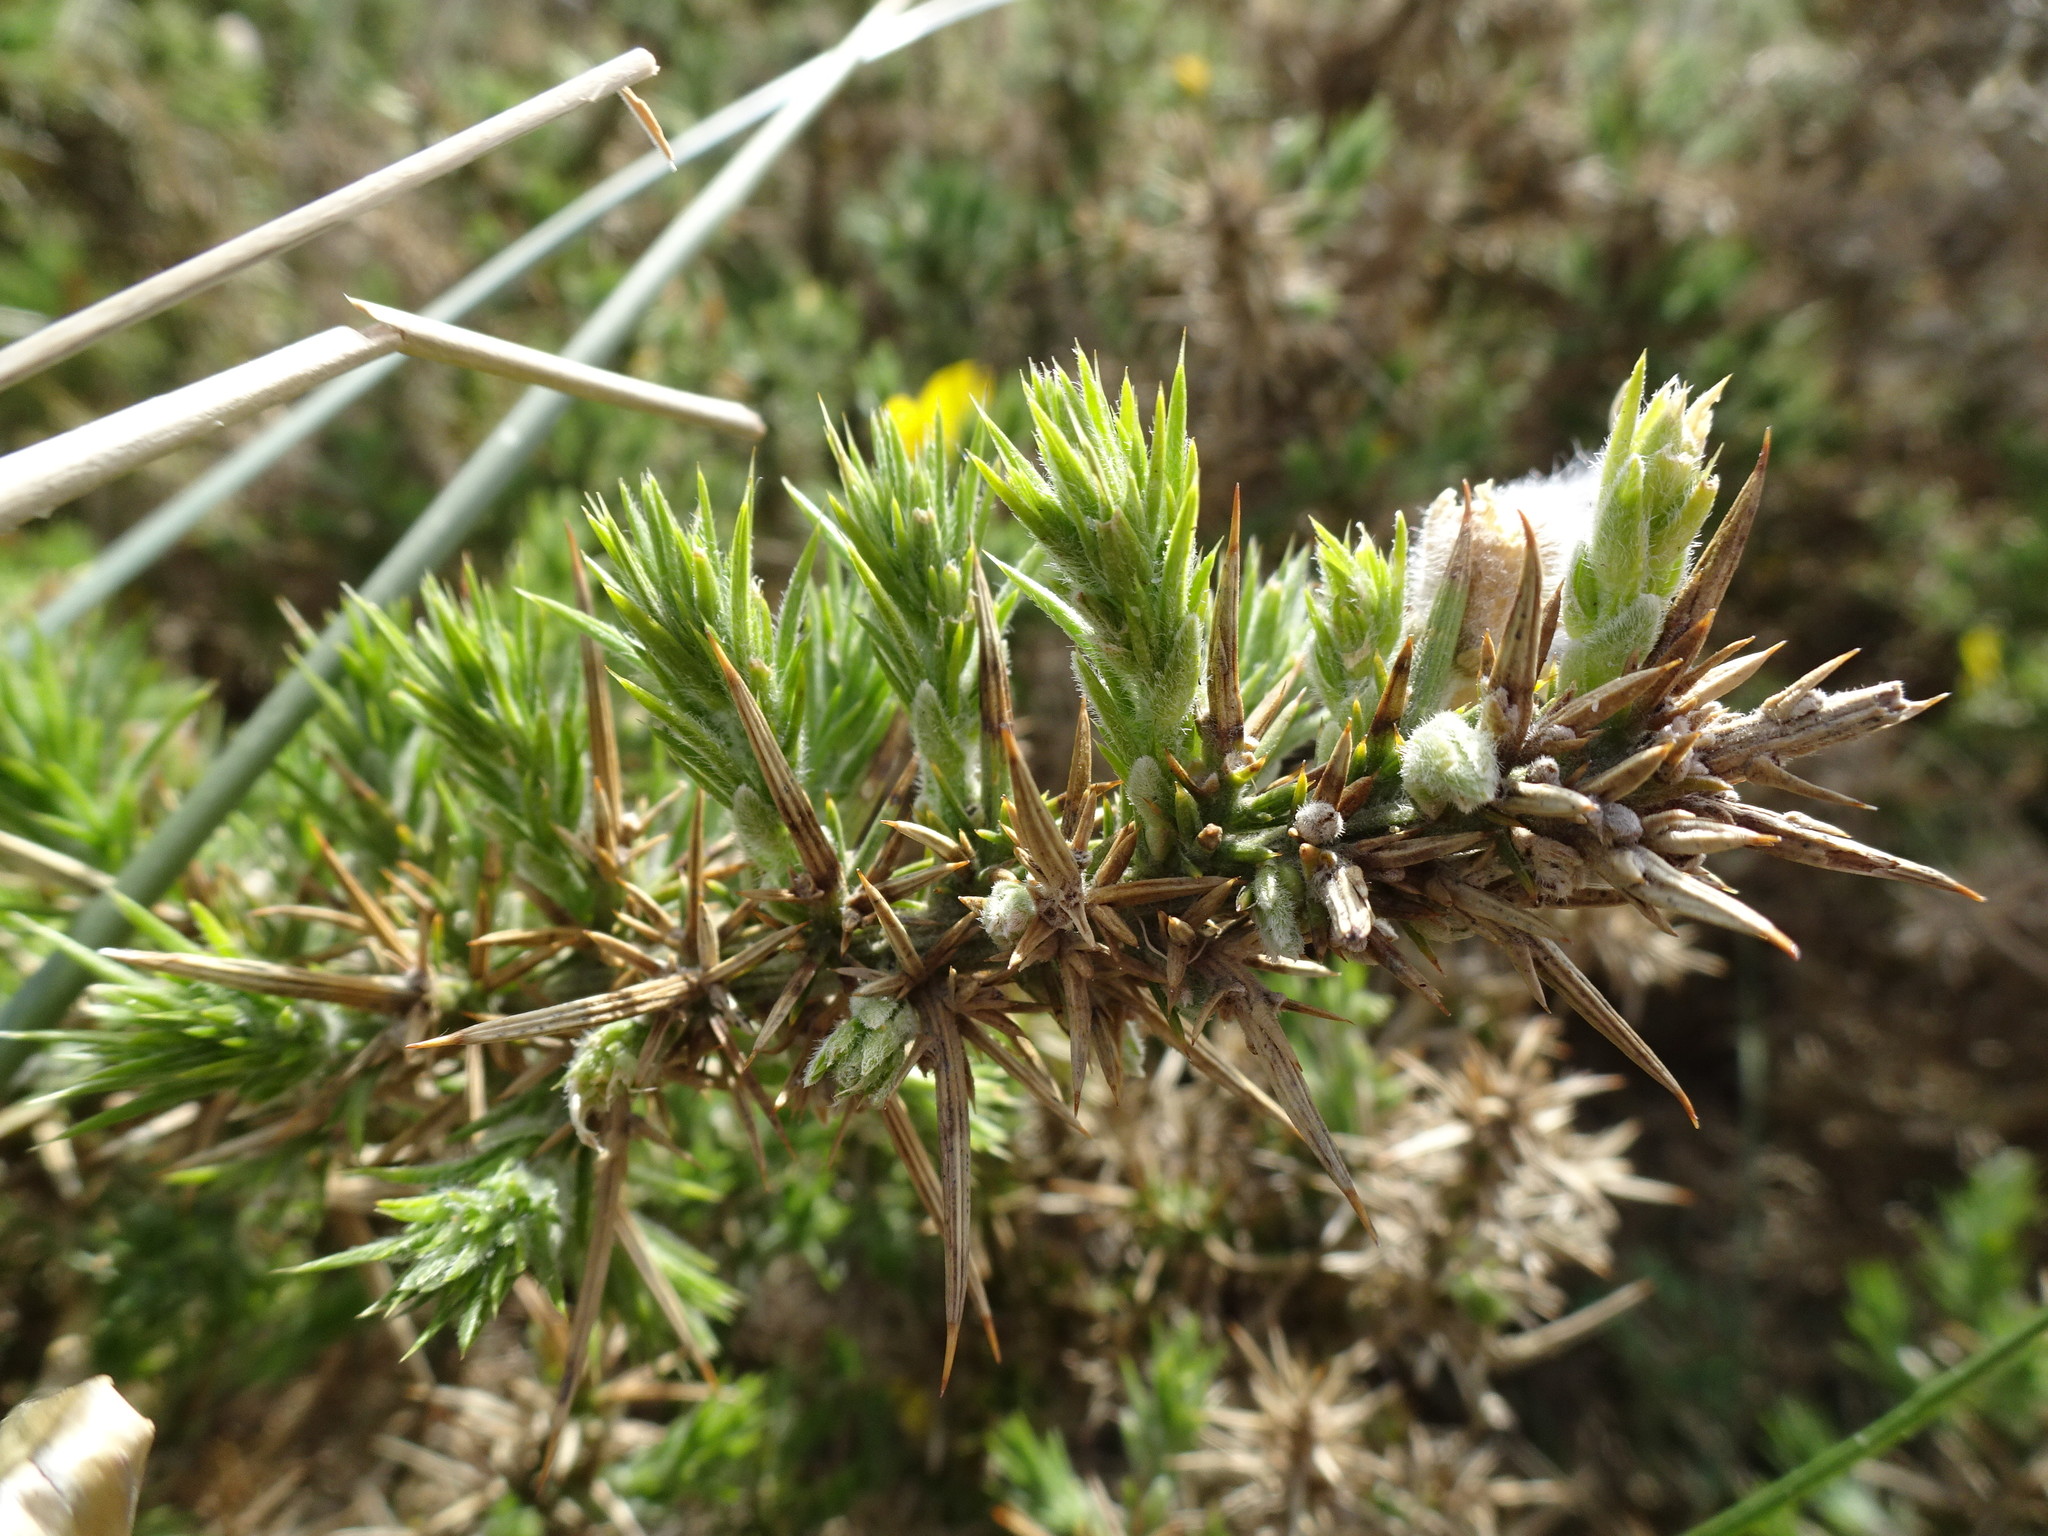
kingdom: Plantae
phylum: Tracheophyta
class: Magnoliopsida
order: Fabales
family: Fabaceae
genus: Ulex
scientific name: Ulex europaeus
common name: Common gorse
